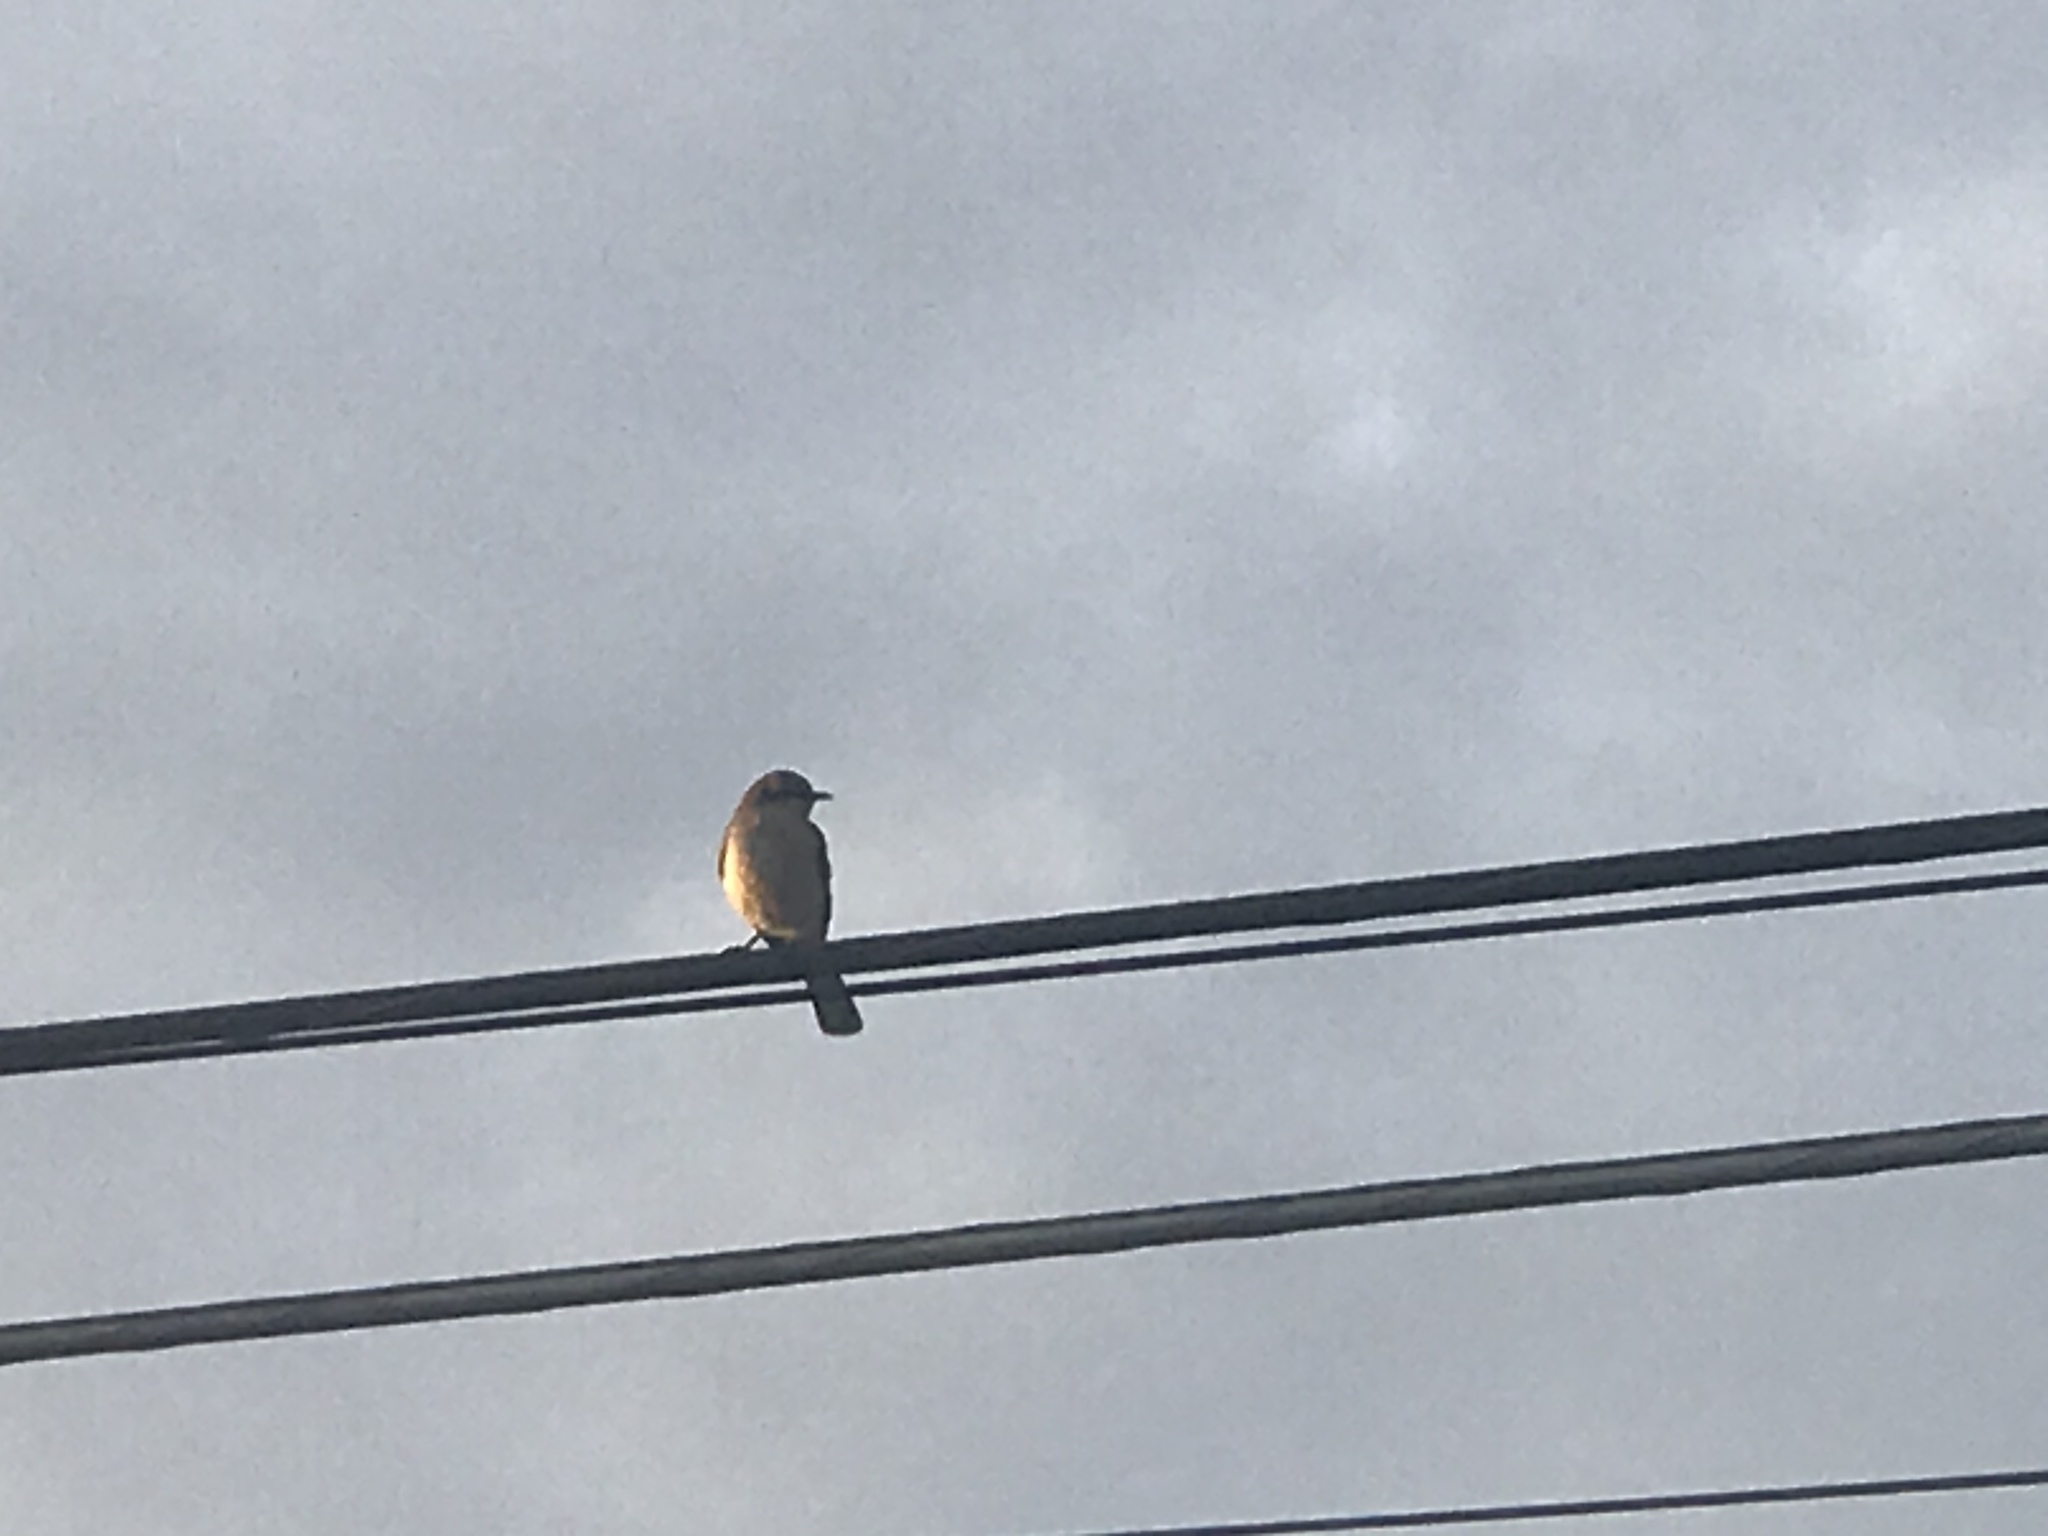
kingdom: Animalia
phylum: Chordata
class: Aves
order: Passeriformes
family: Mimidae
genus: Mimus
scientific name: Mimus polyglottos
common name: Northern mockingbird
